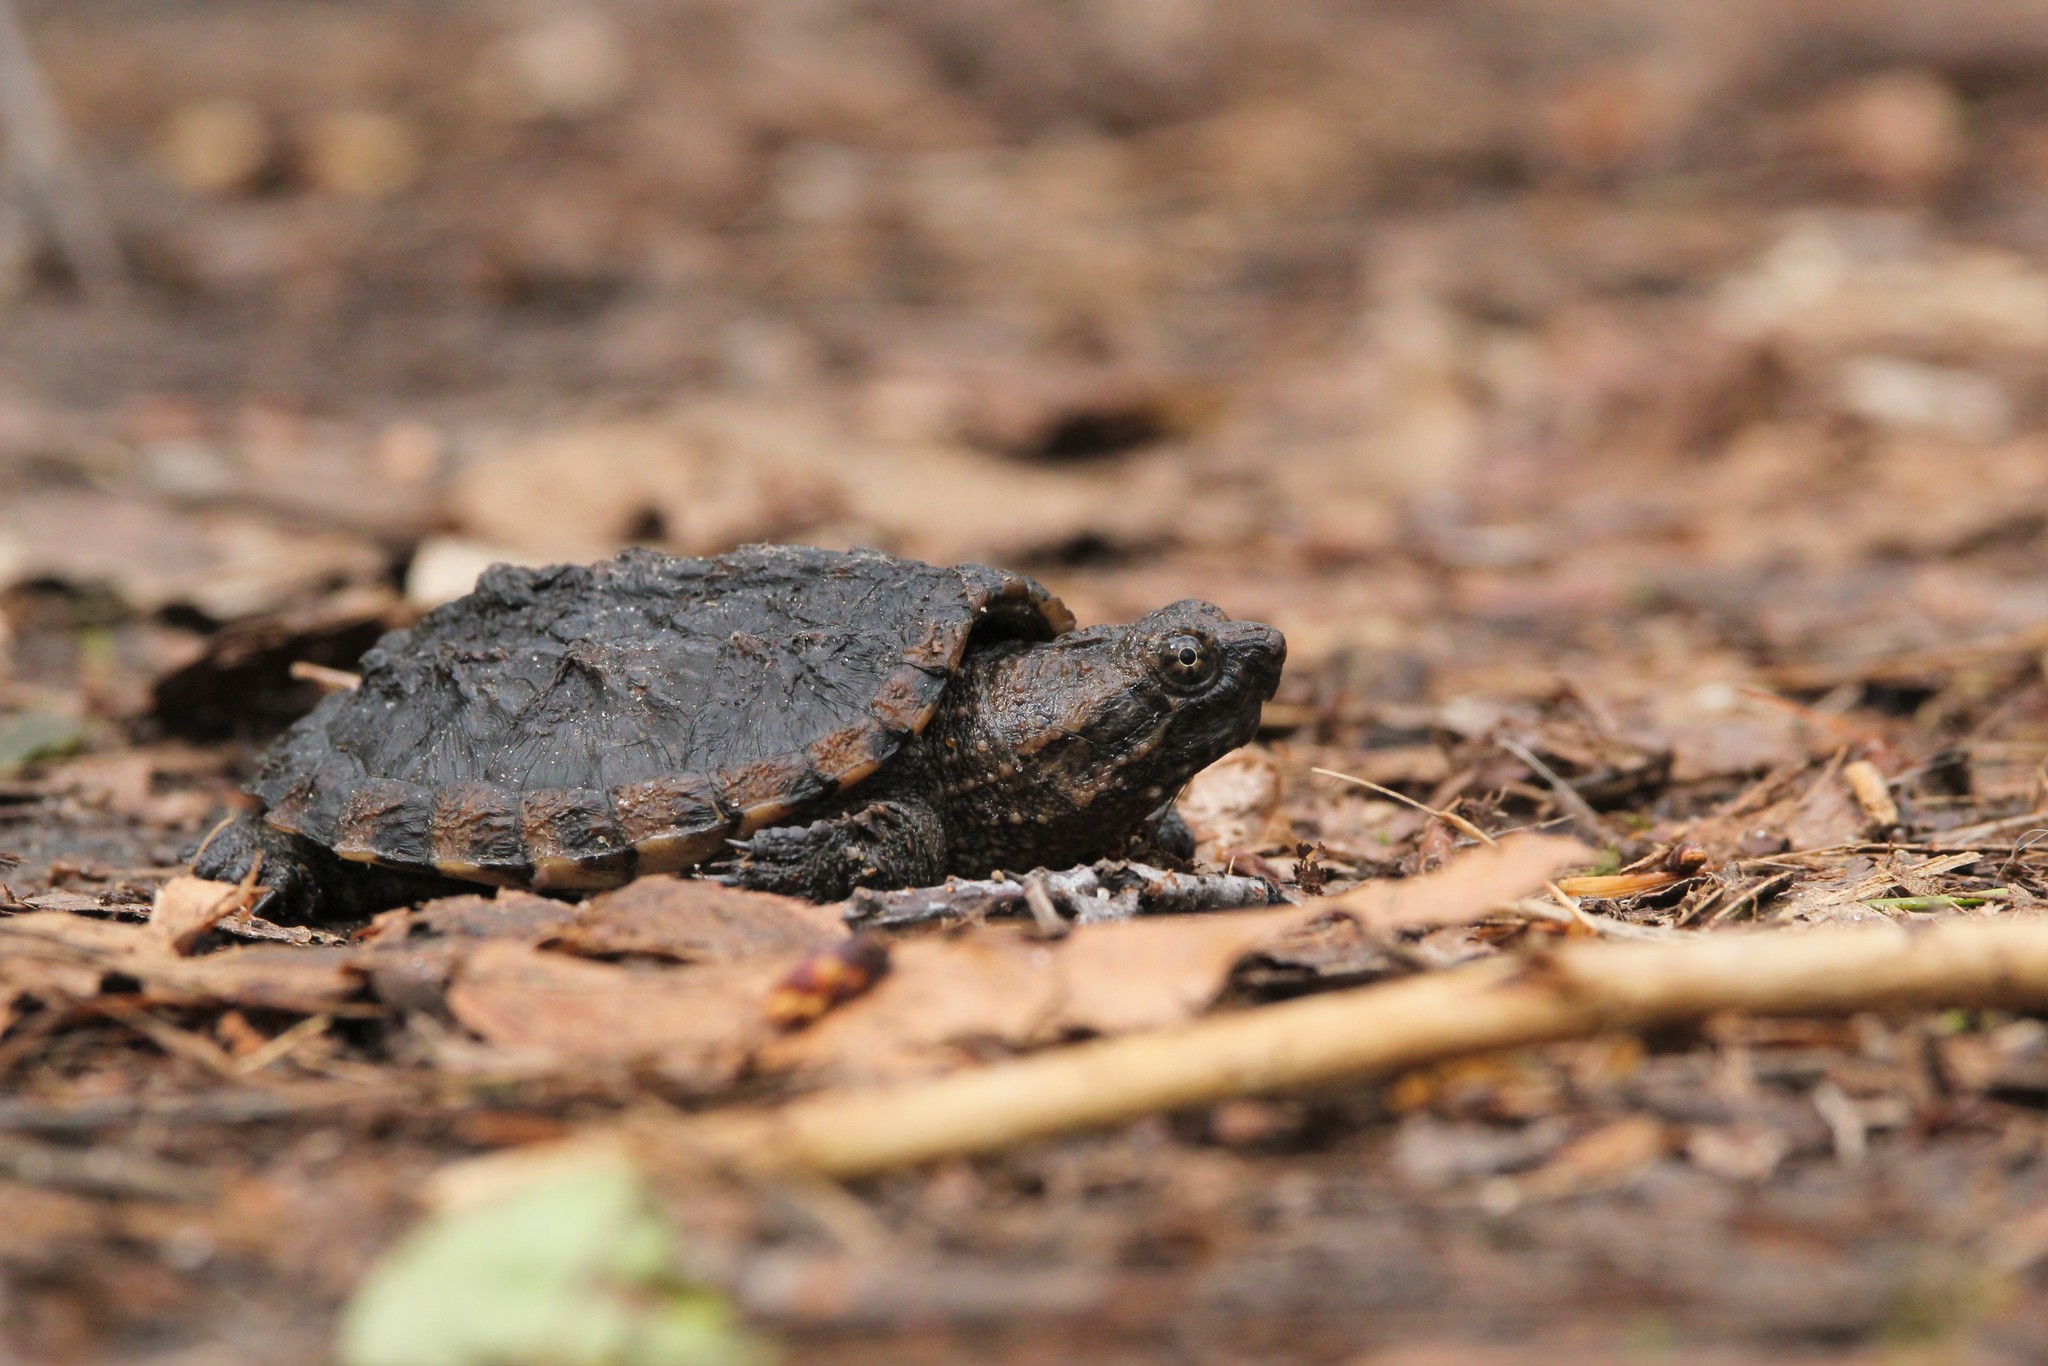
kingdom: Animalia
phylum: Chordata
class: Testudines
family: Chelydridae
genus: Chelydra
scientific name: Chelydra serpentina
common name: Common snapping turtle
